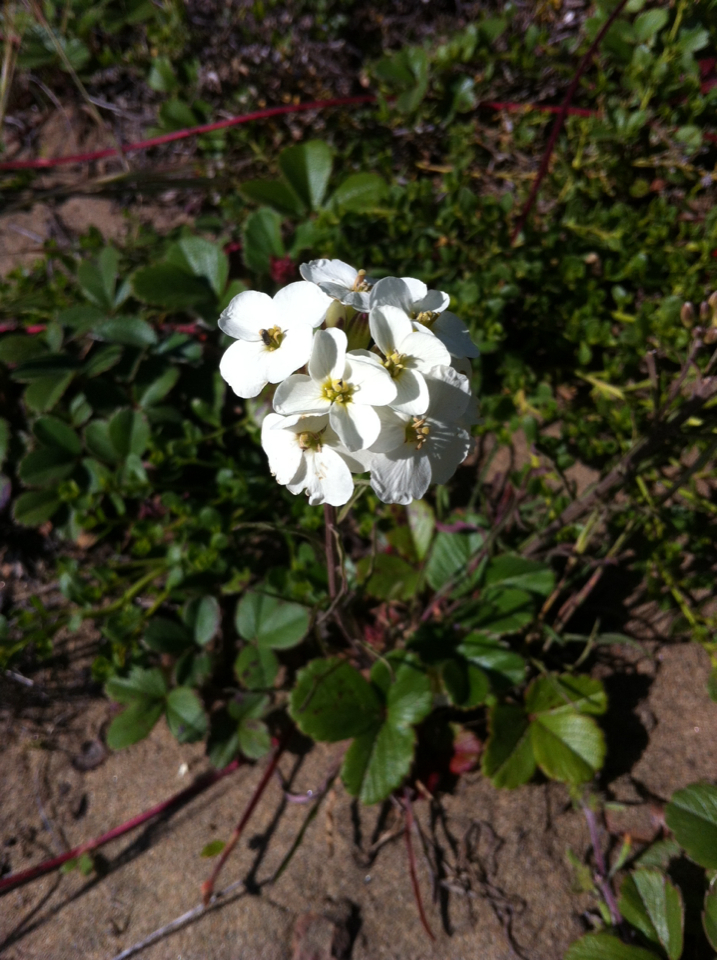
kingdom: Plantae
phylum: Tracheophyta
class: Magnoliopsida
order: Brassicales
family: Brassicaceae
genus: Erysimum
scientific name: Erysimum franciscanum
